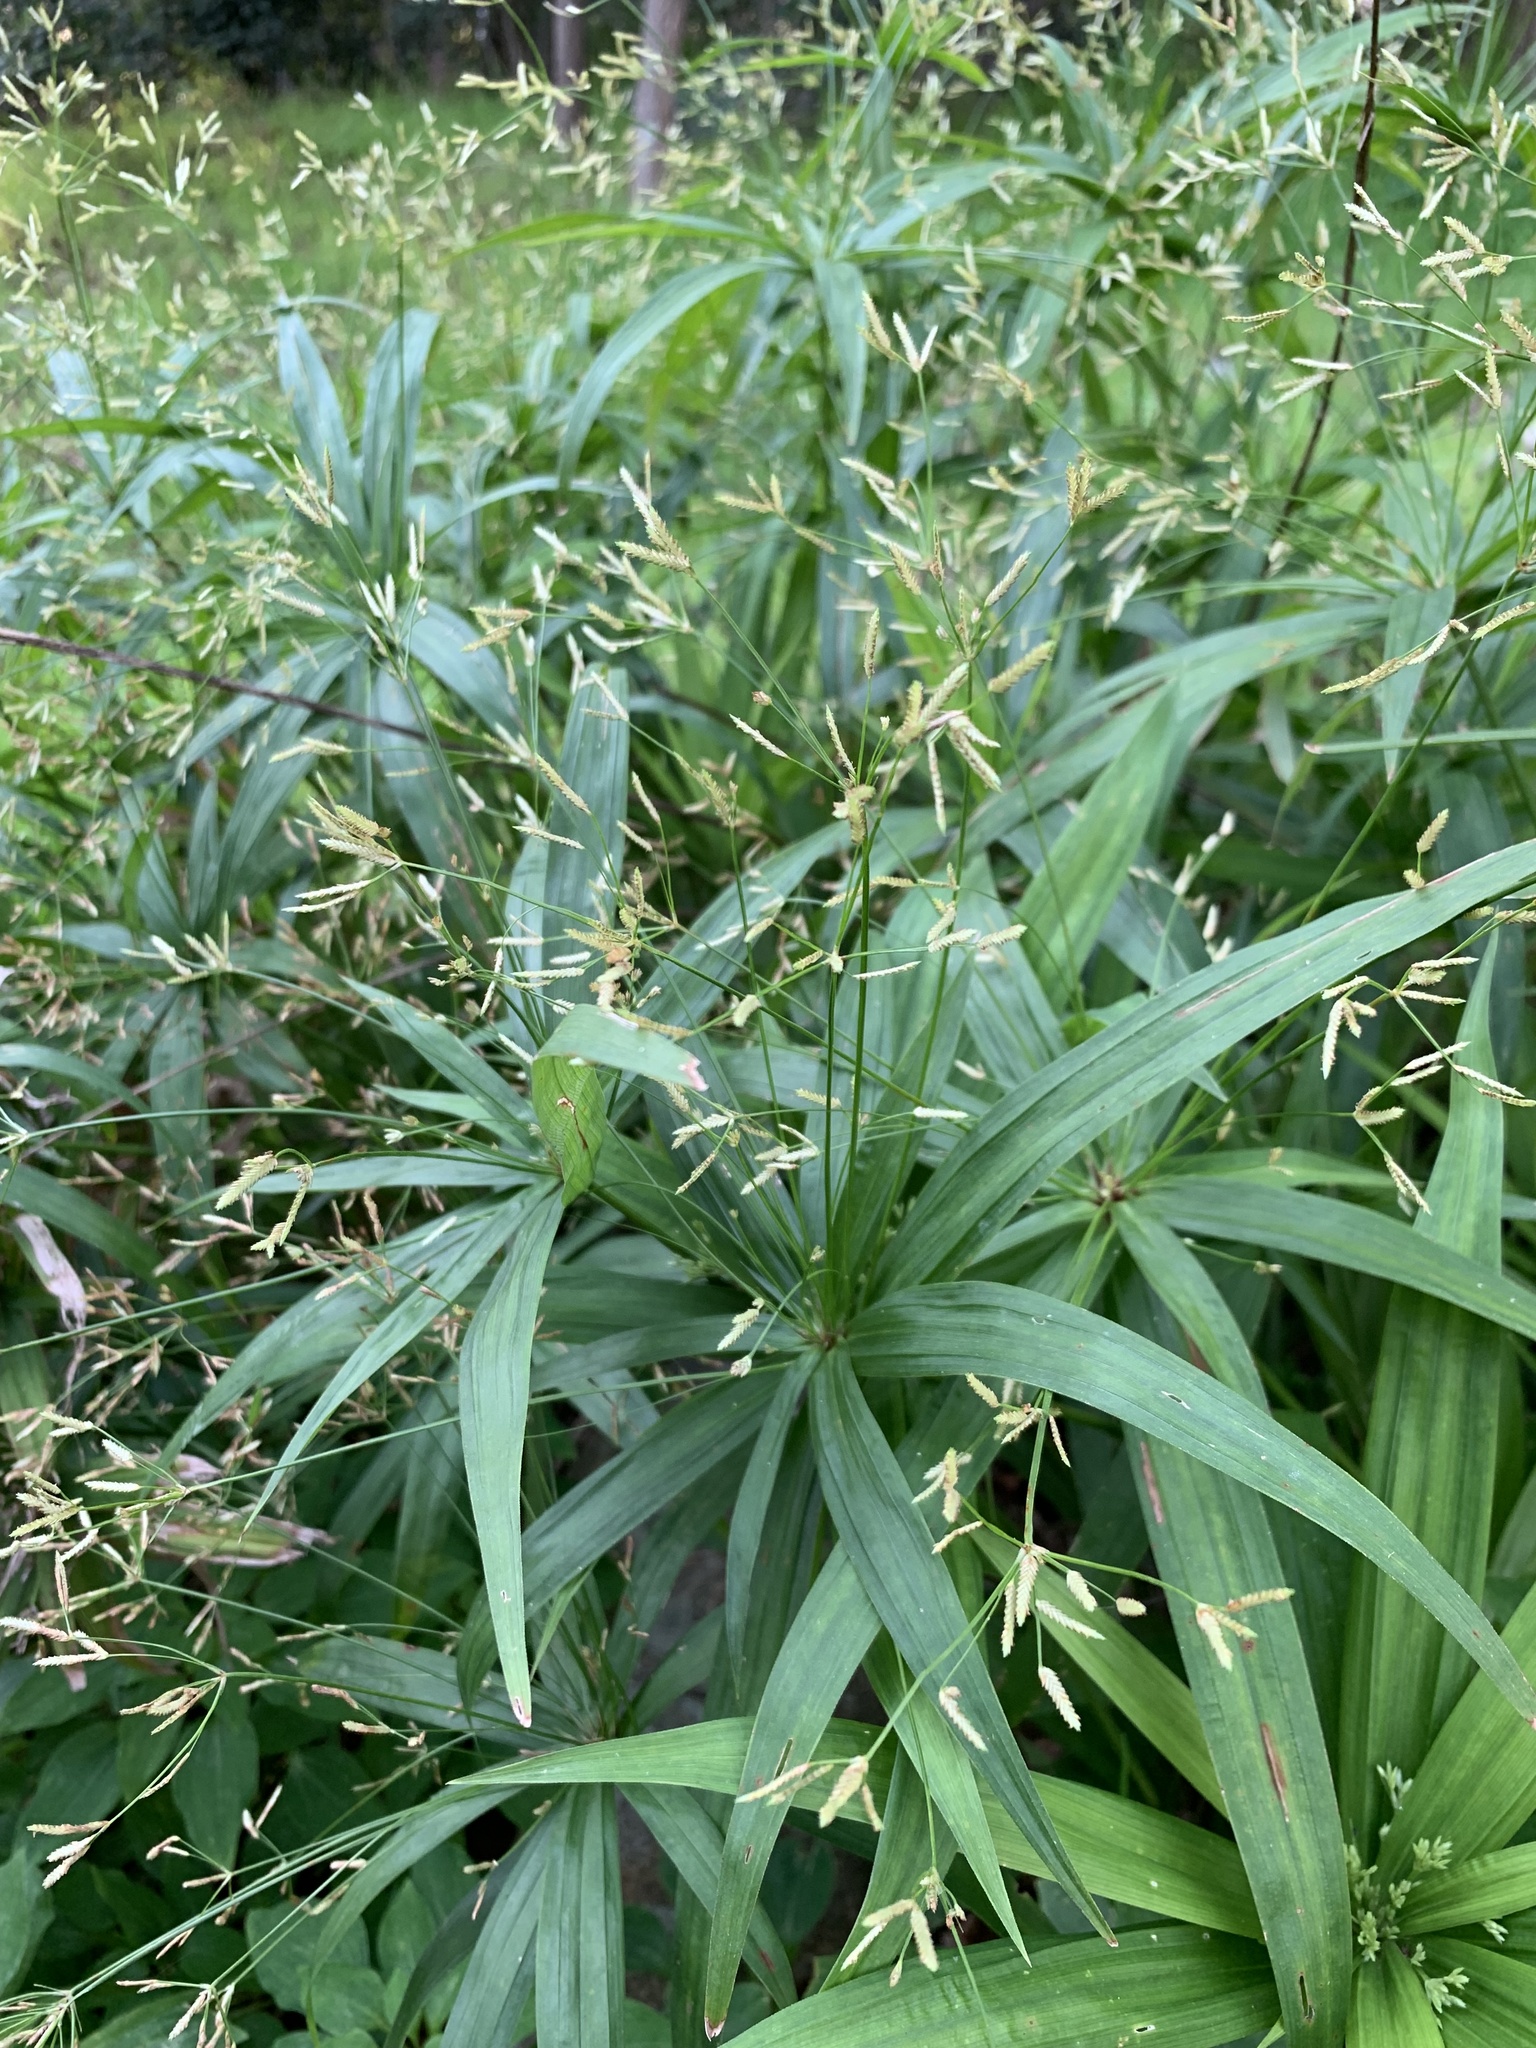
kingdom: Plantae
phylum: Tracheophyta
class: Liliopsida
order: Poales
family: Cyperaceae
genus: Cyperus
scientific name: Cyperus albostriatus
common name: Dwarf umbrella-grass
